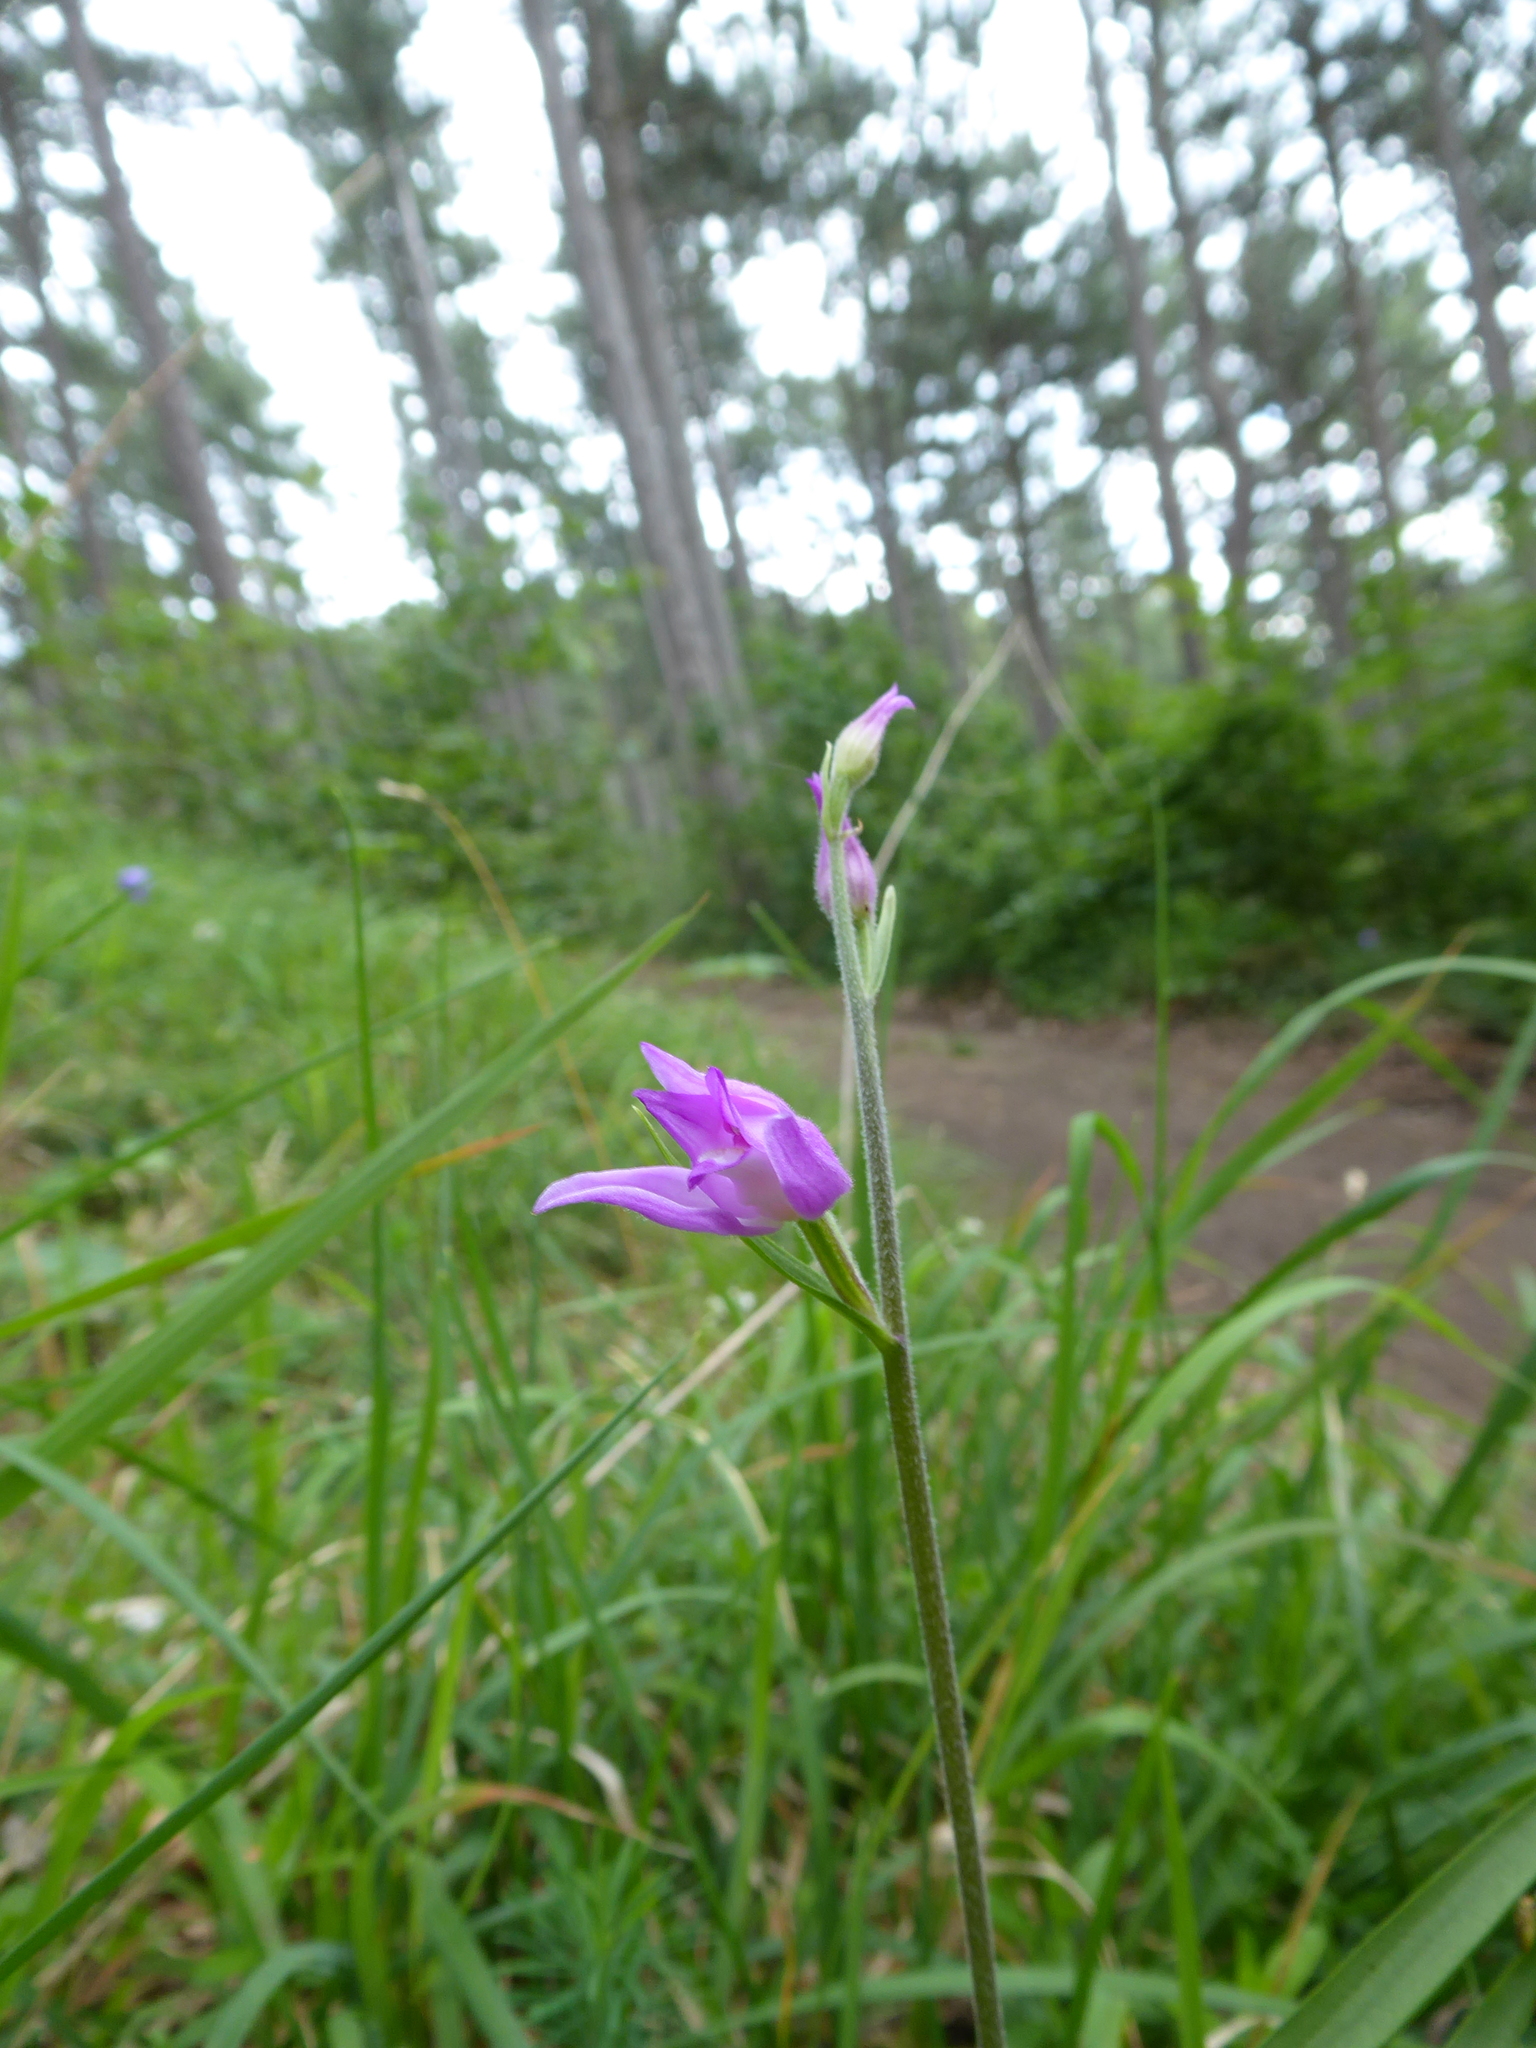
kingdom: Plantae
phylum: Tracheophyta
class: Liliopsida
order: Asparagales
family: Orchidaceae
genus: Cephalanthera
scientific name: Cephalanthera rubra
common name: Red helleborine
